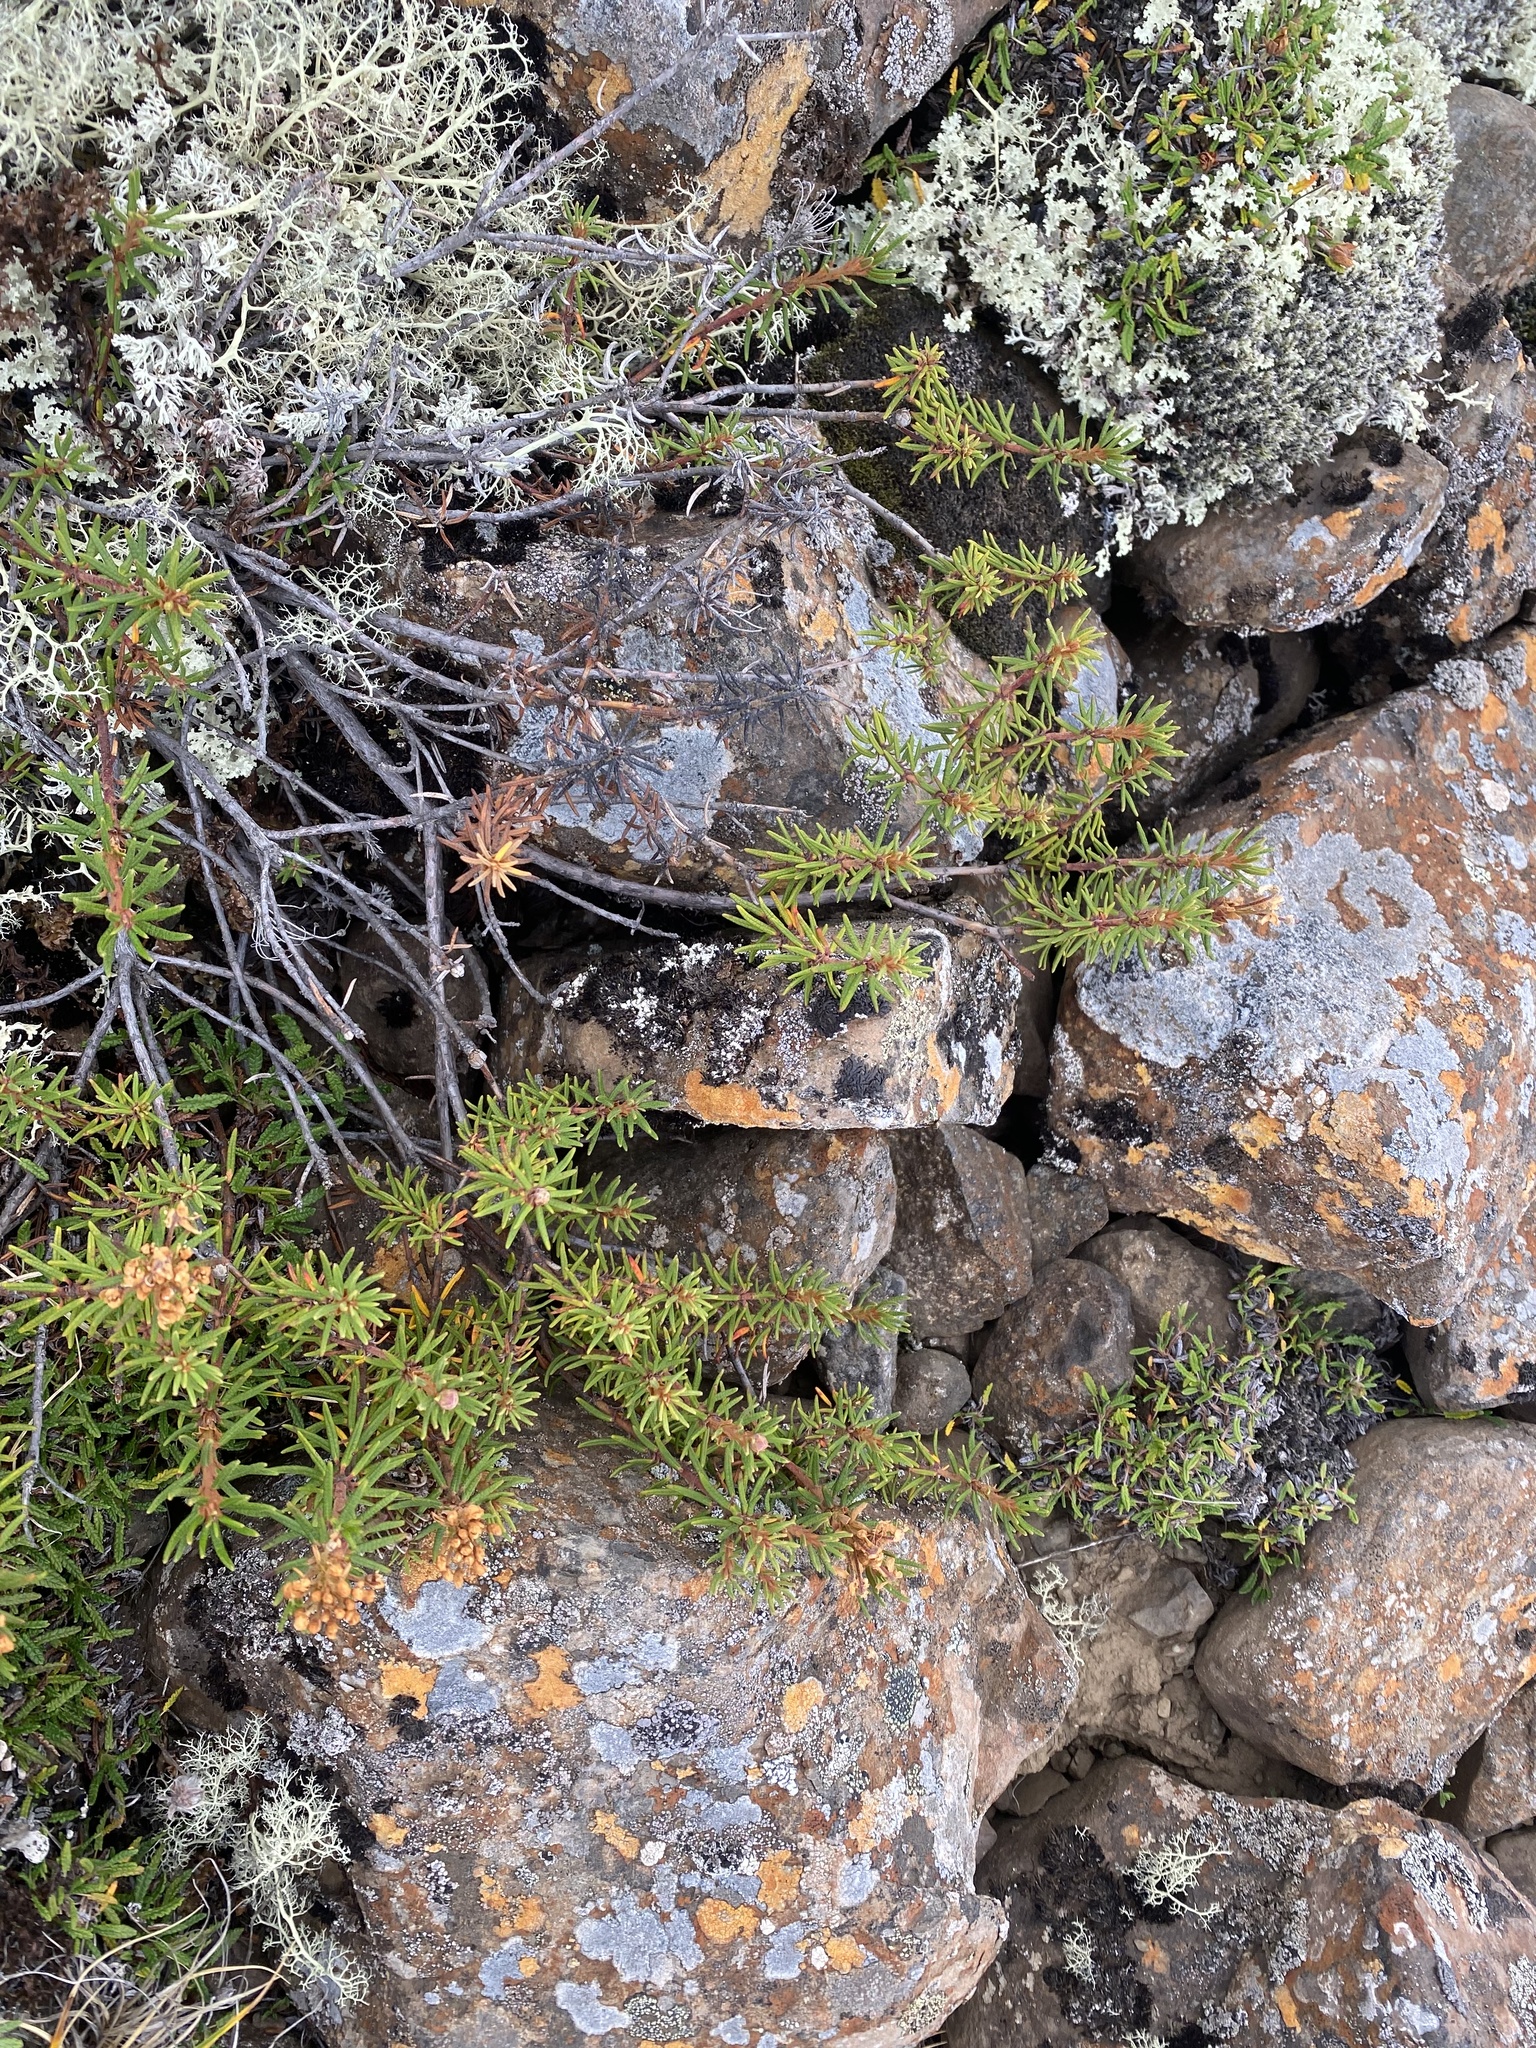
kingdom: Plantae
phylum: Tracheophyta
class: Magnoliopsida
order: Ericales
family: Ericaceae
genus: Rhododendron
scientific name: Rhododendron tomentosum
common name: Marsh labrador tea
